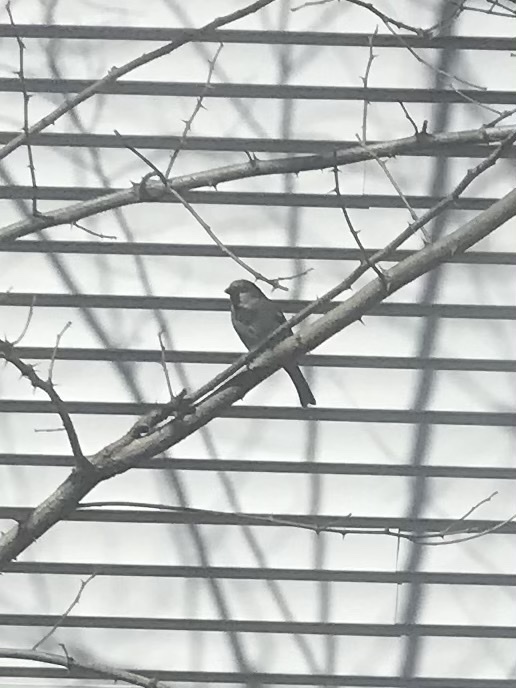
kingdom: Animalia
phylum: Chordata
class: Aves
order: Passeriformes
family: Passeridae
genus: Passer
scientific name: Passer domesticus
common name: House sparrow
